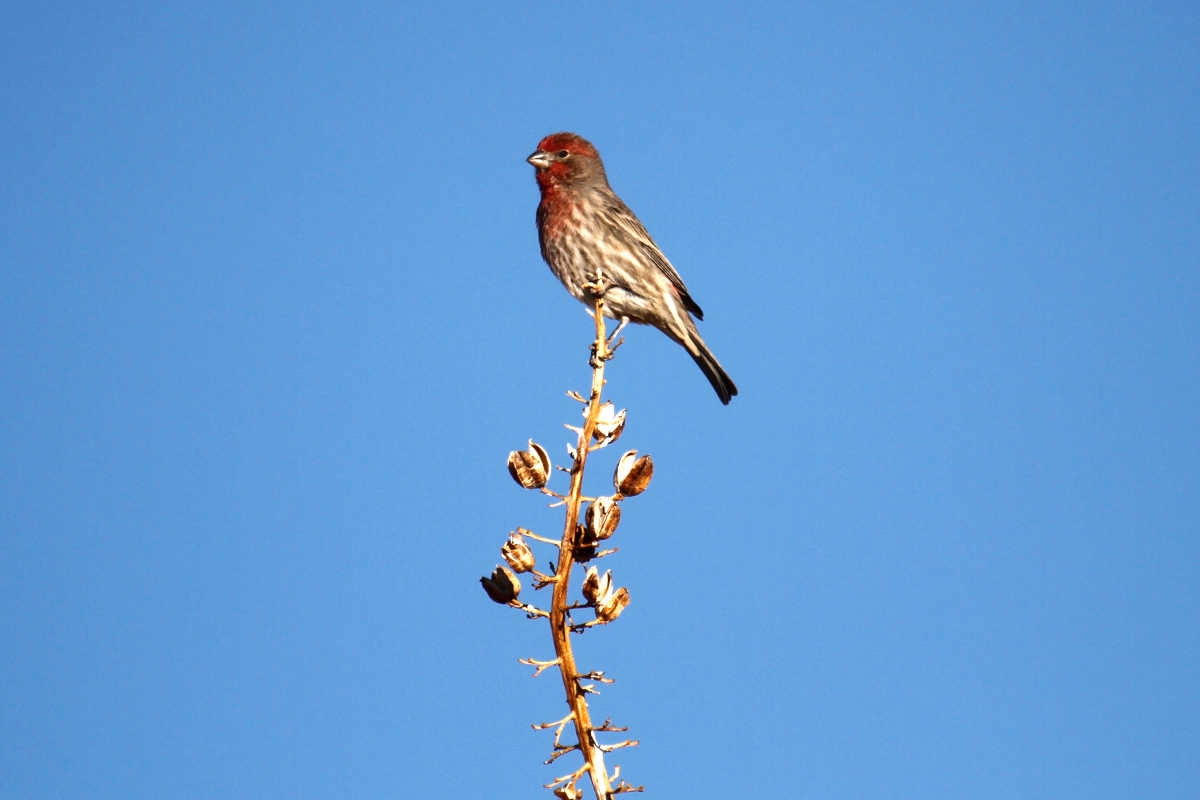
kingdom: Animalia
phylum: Chordata
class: Aves
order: Passeriformes
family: Fringillidae
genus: Haemorhous
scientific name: Haemorhous mexicanus
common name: House finch
